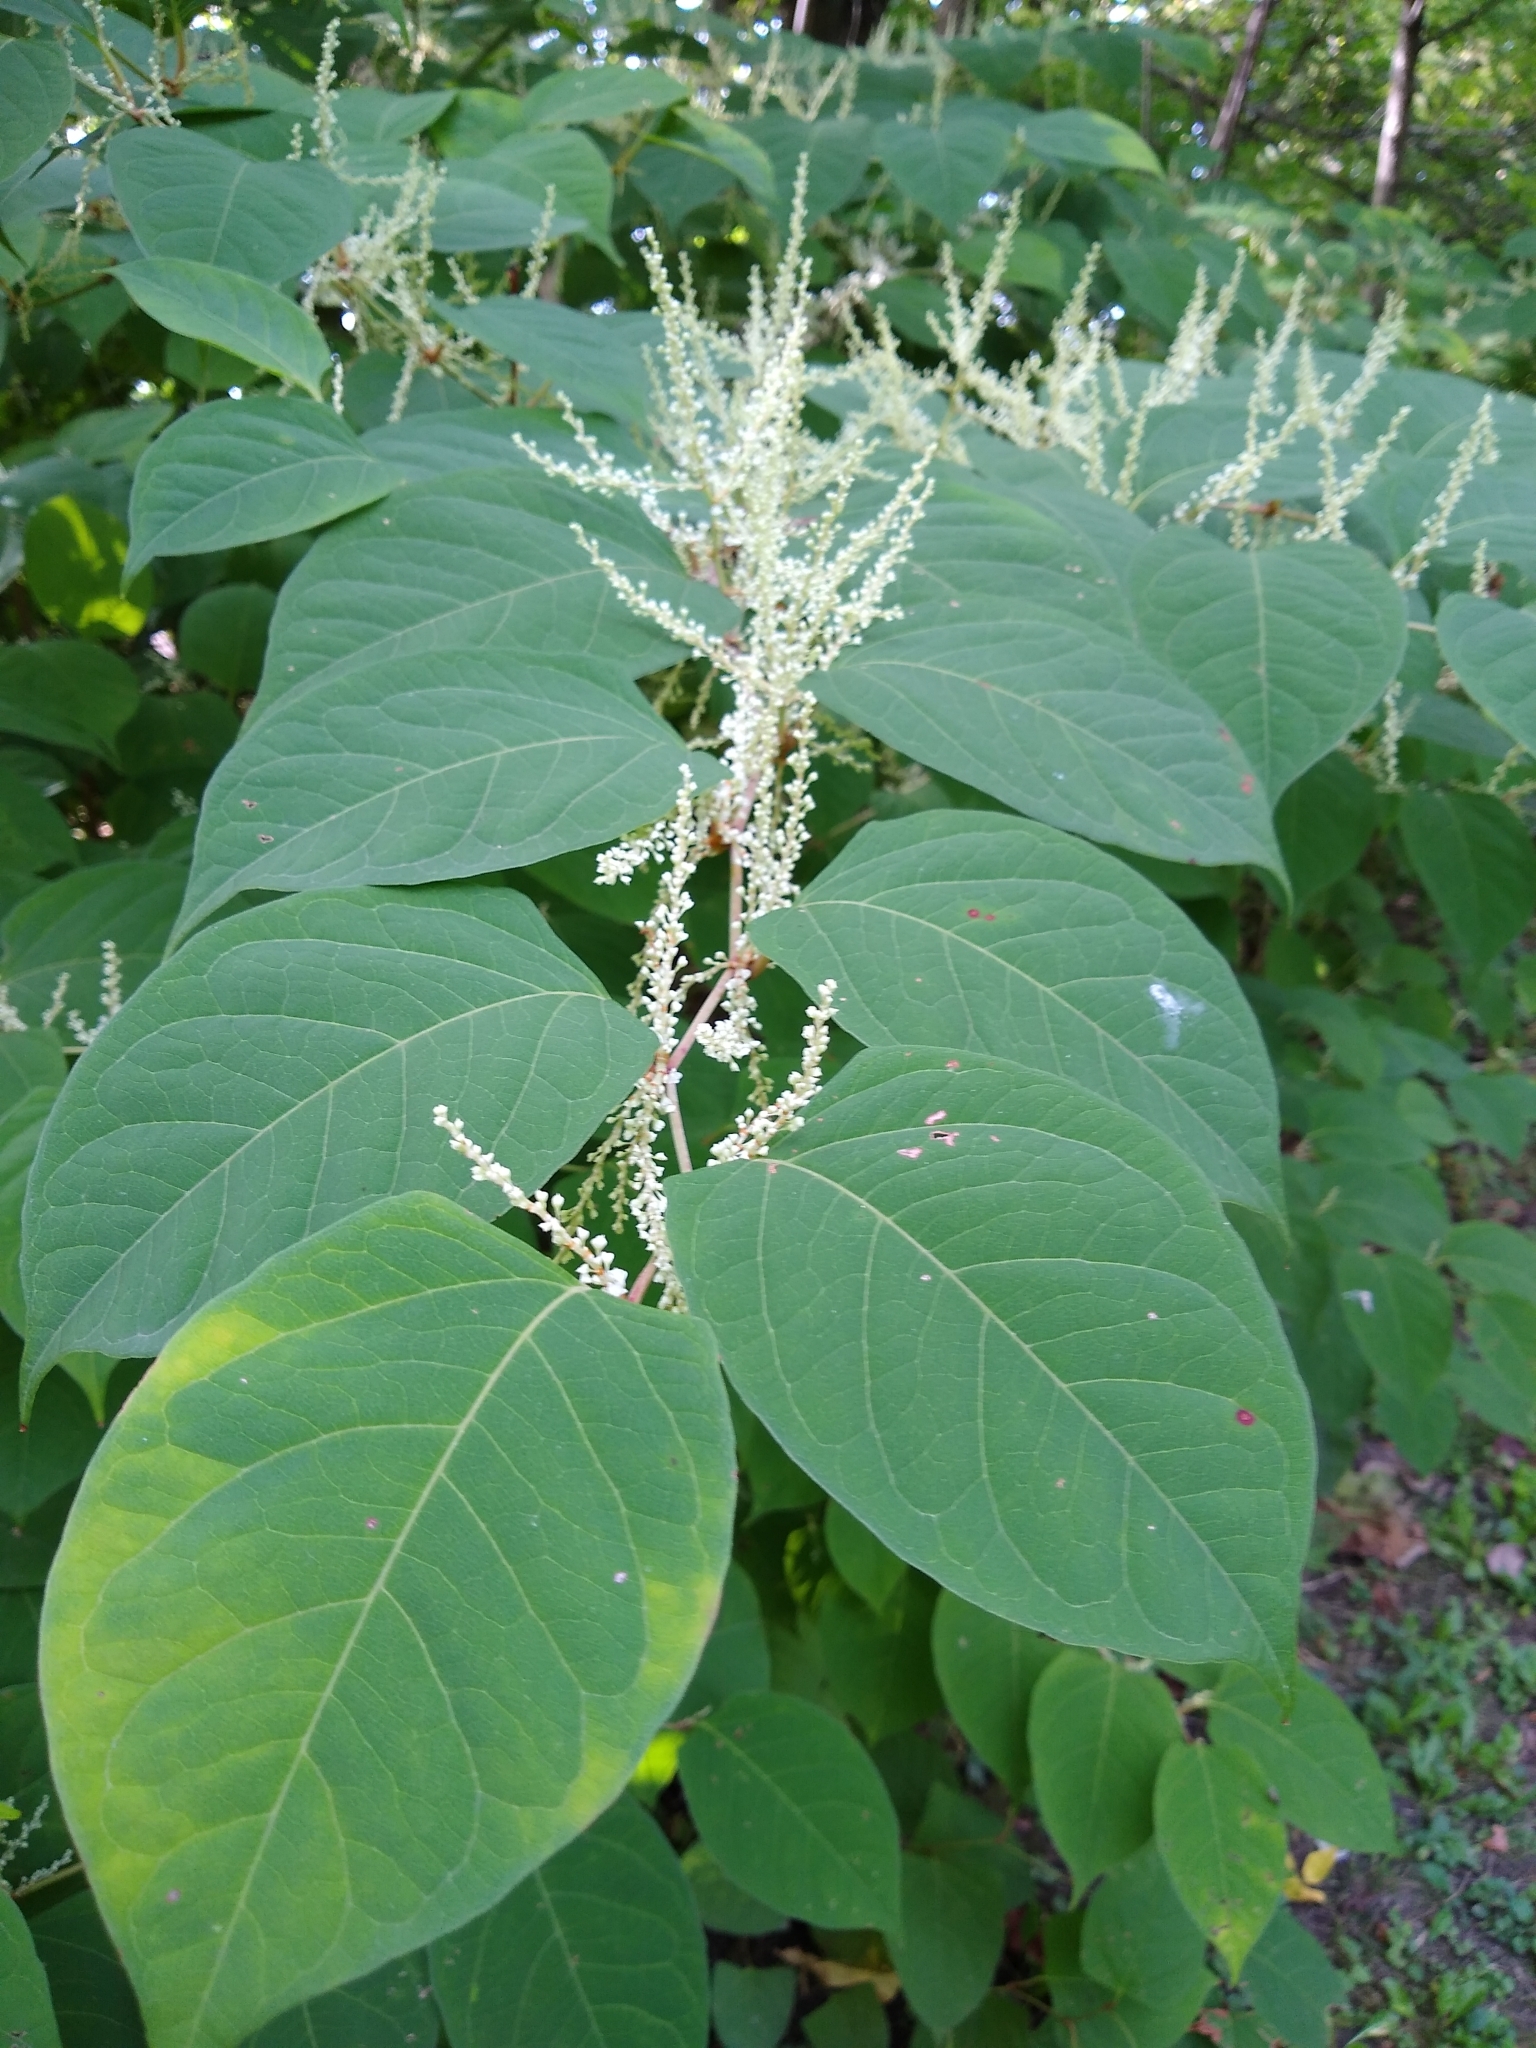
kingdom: Plantae
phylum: Tracheophyta
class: Magnoliopsida
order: Caryophyllales
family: Polygonaceae
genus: Reynoutria
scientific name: Reynoutria japonica
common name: Japanese knotweed
